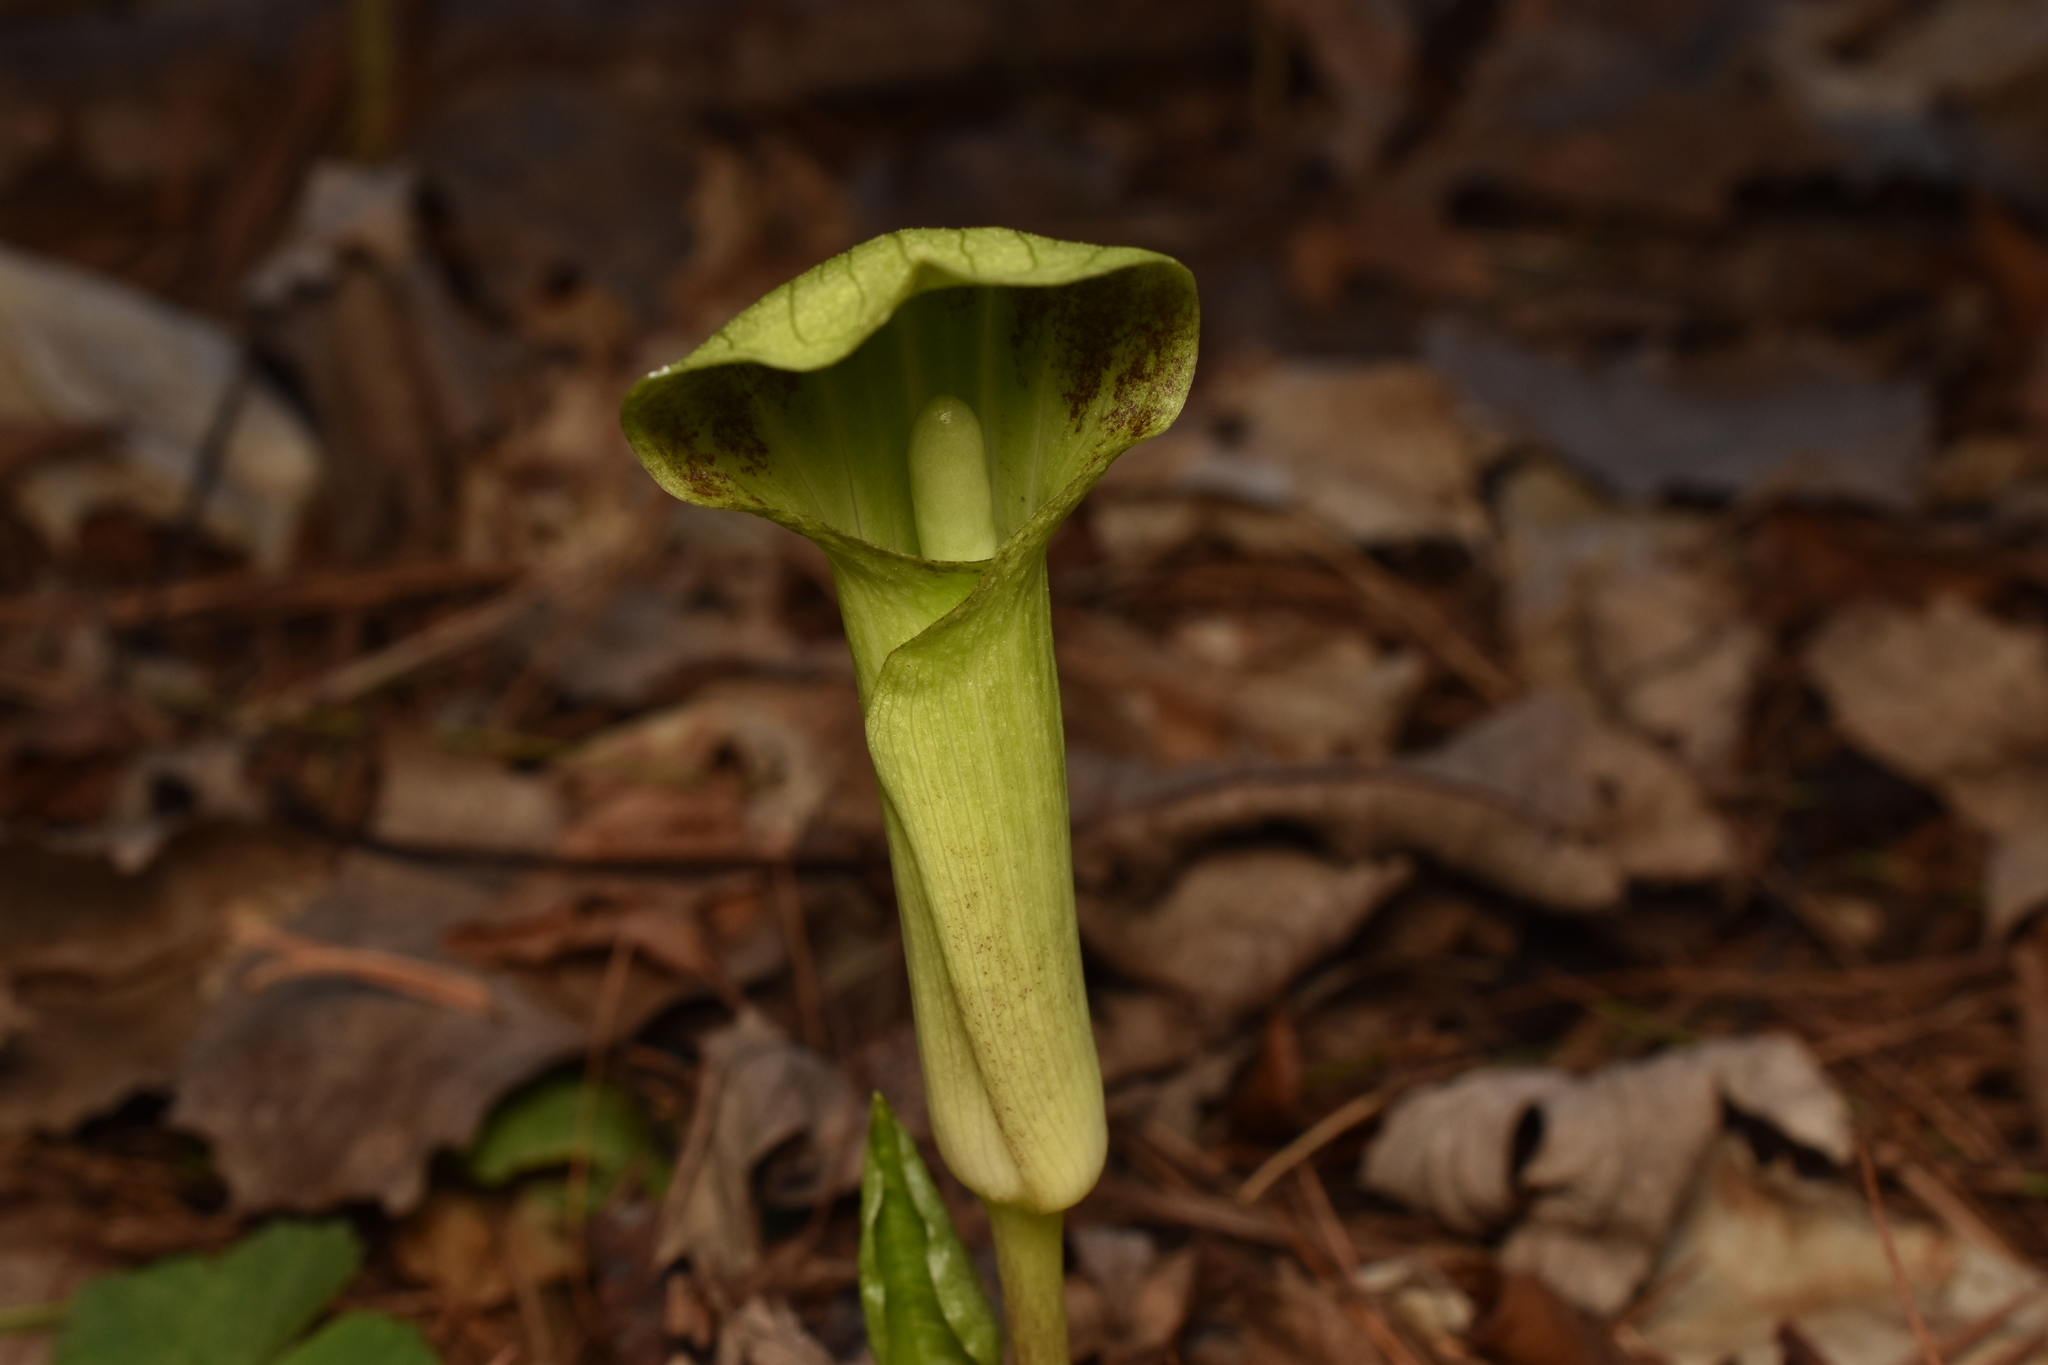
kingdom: Plantae
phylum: Tracheophyta
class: Liliopsida
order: Alismatales
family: Araceae
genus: Arisaema
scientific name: Arisaema triphyllum
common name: Jack-in-the-pulpit
